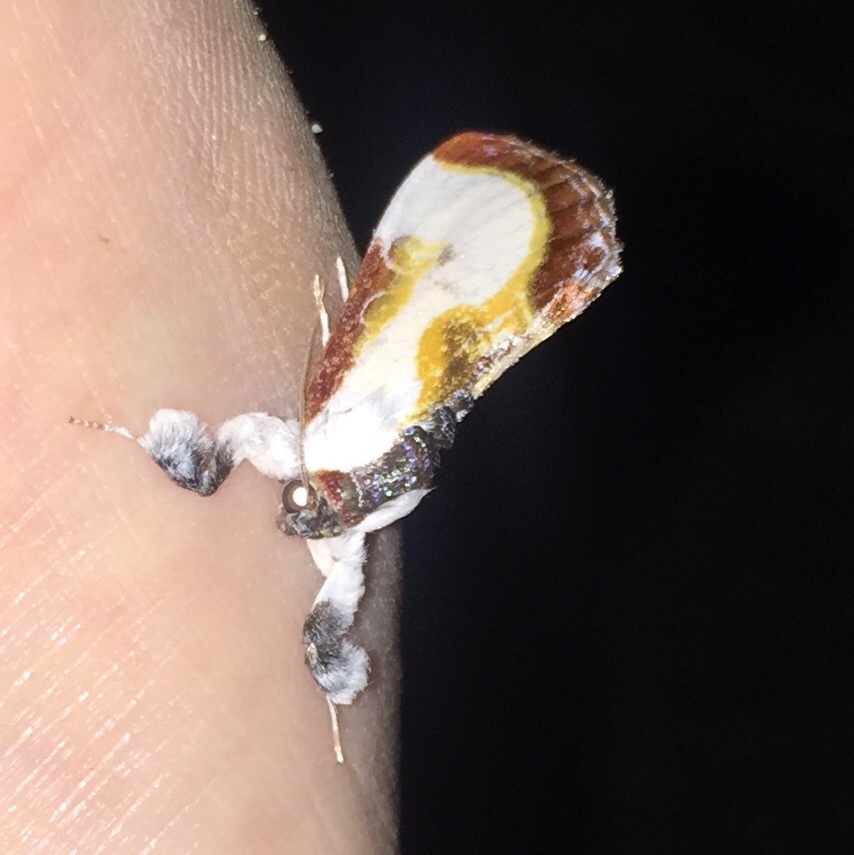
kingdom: Animalia
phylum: Arthropoda
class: Insecta
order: Lepidoptera
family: Noctuidae
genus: Eudryas
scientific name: Eudryas grata
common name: Beautiful wood-nymph
